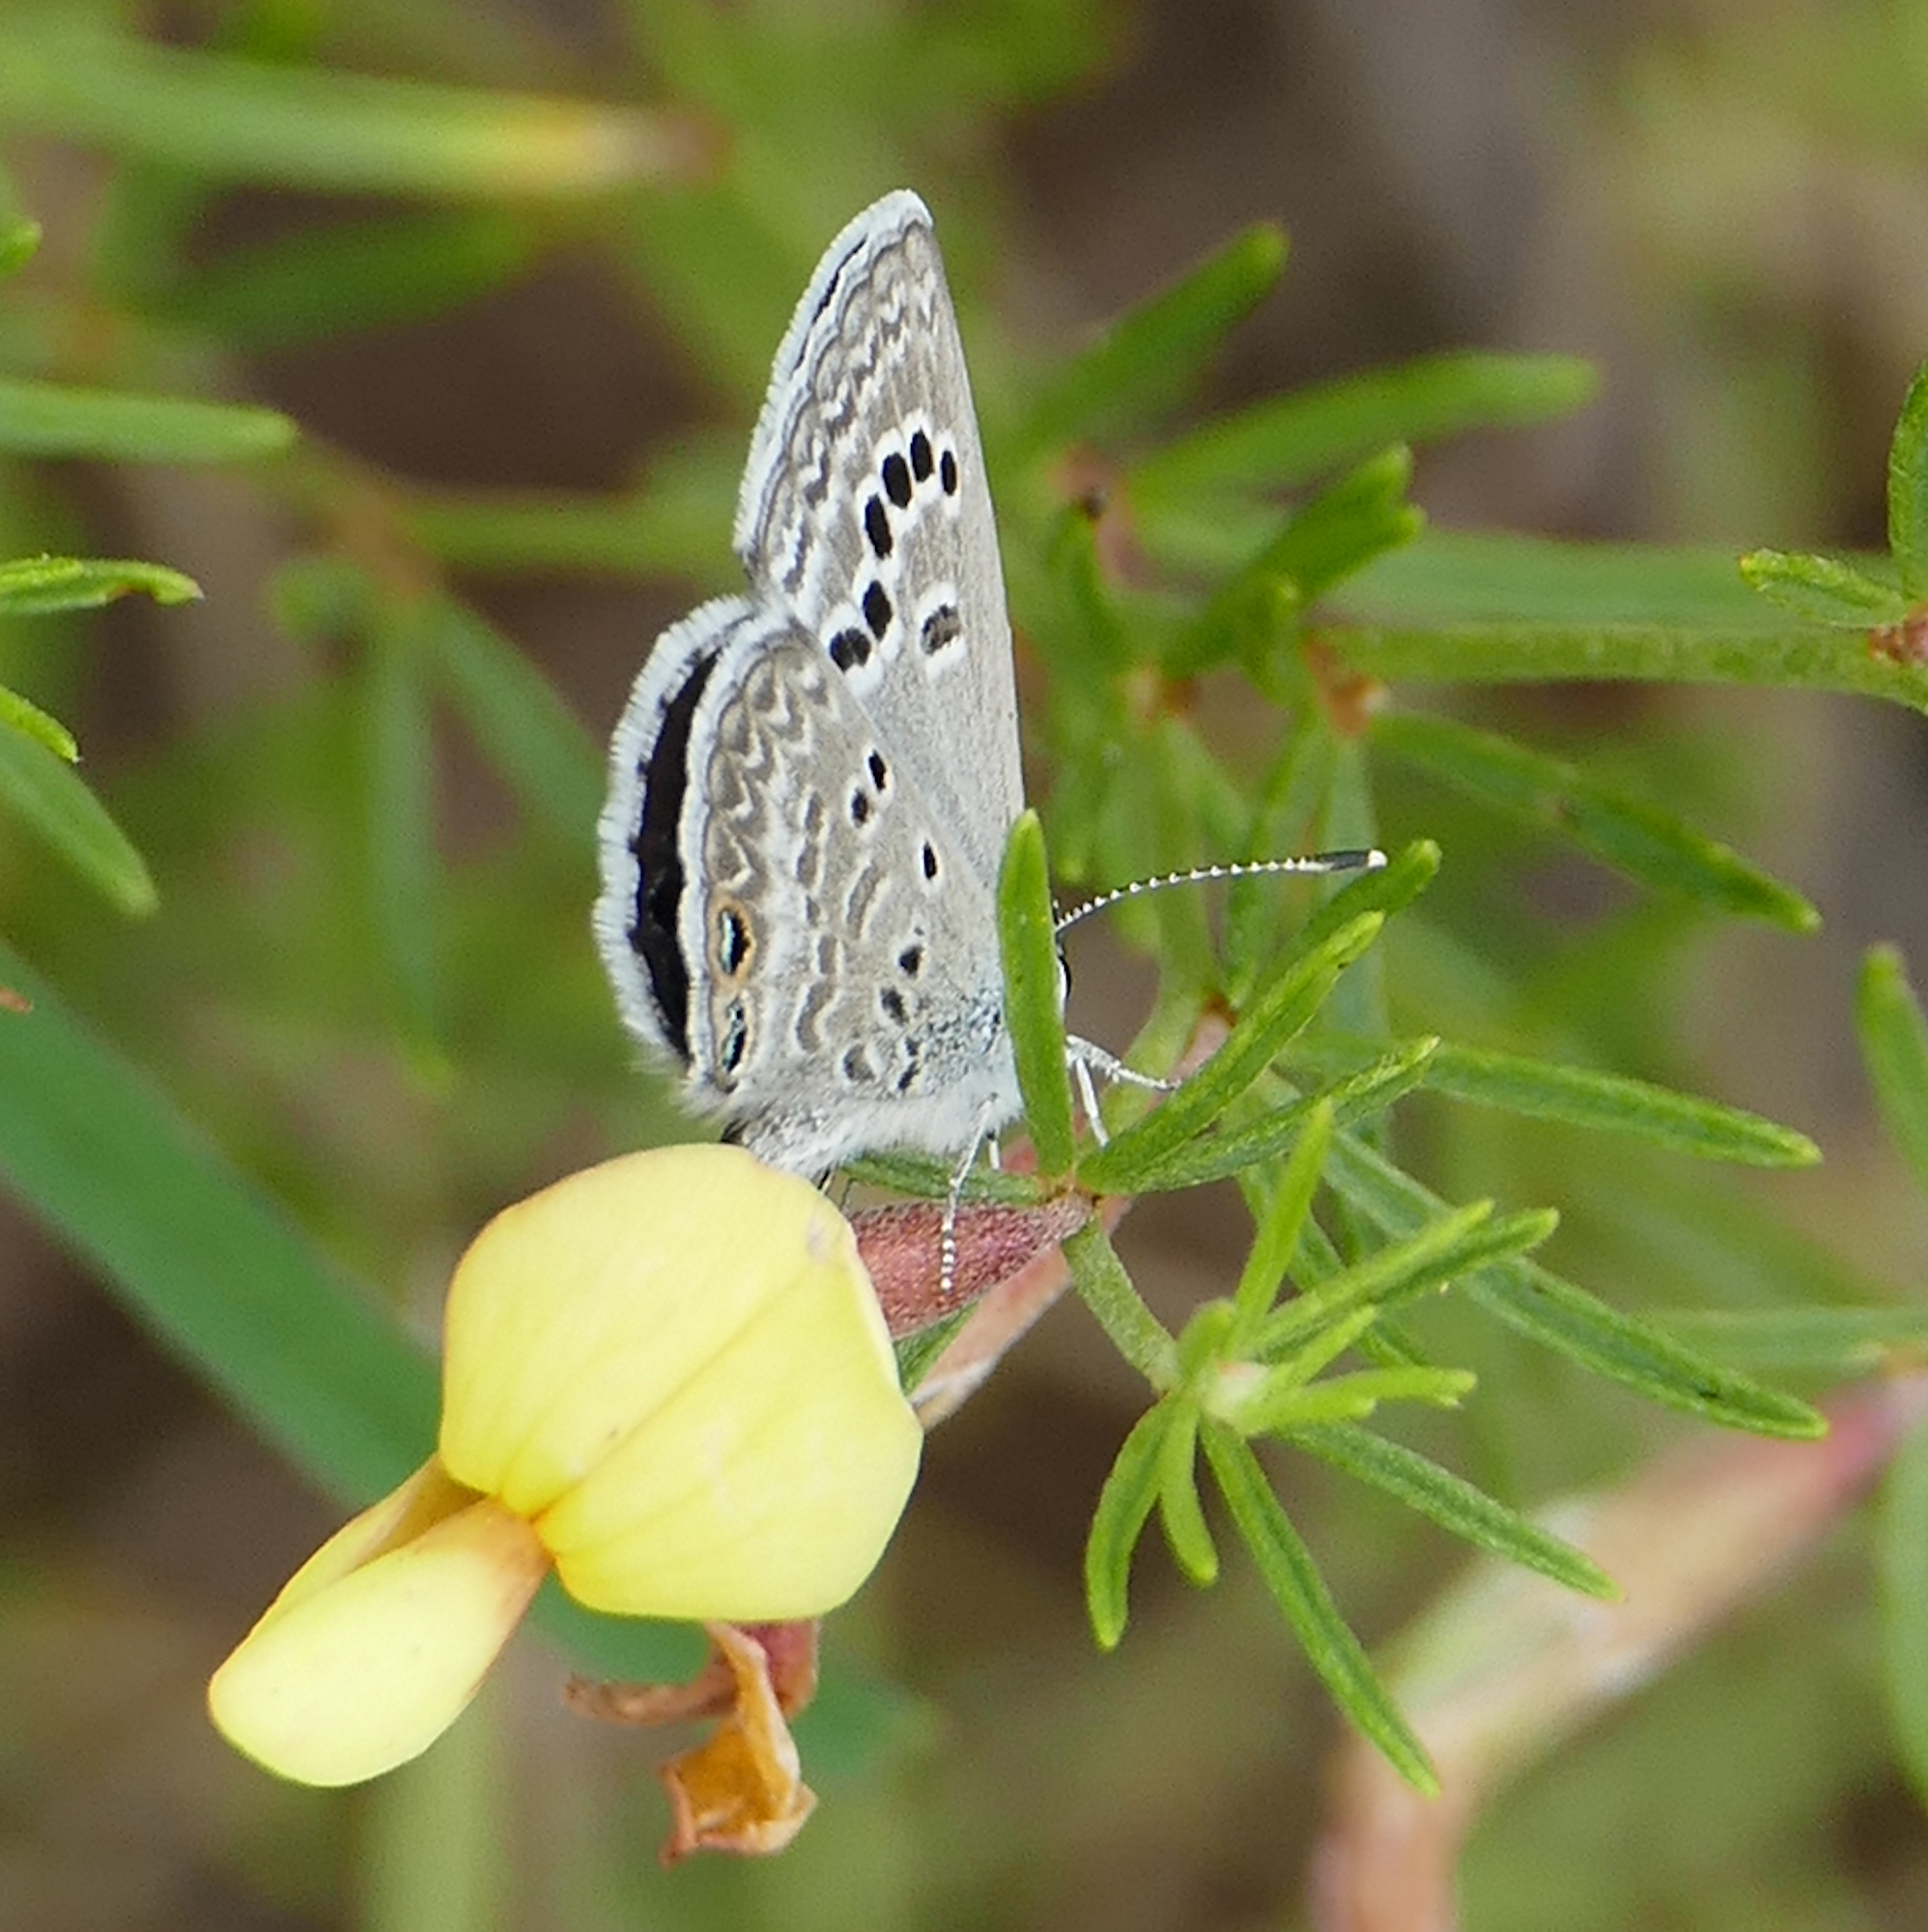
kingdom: Animalia
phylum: Arthropoda
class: Insecta
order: Lepidoptera
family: Lycaenidae
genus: Echinargus
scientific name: Echinargus isola
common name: Reakirt's blue
